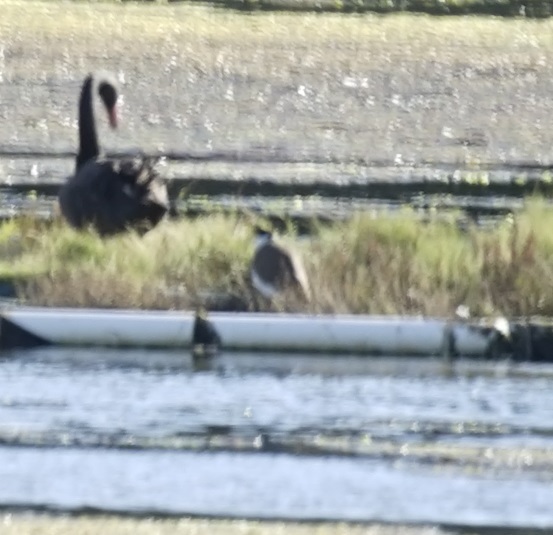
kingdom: Animalia
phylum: Chordata
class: Aves
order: Charadriiformes
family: Charadriidae
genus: Vanellus
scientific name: Vanellus miles
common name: Masked lapwing
